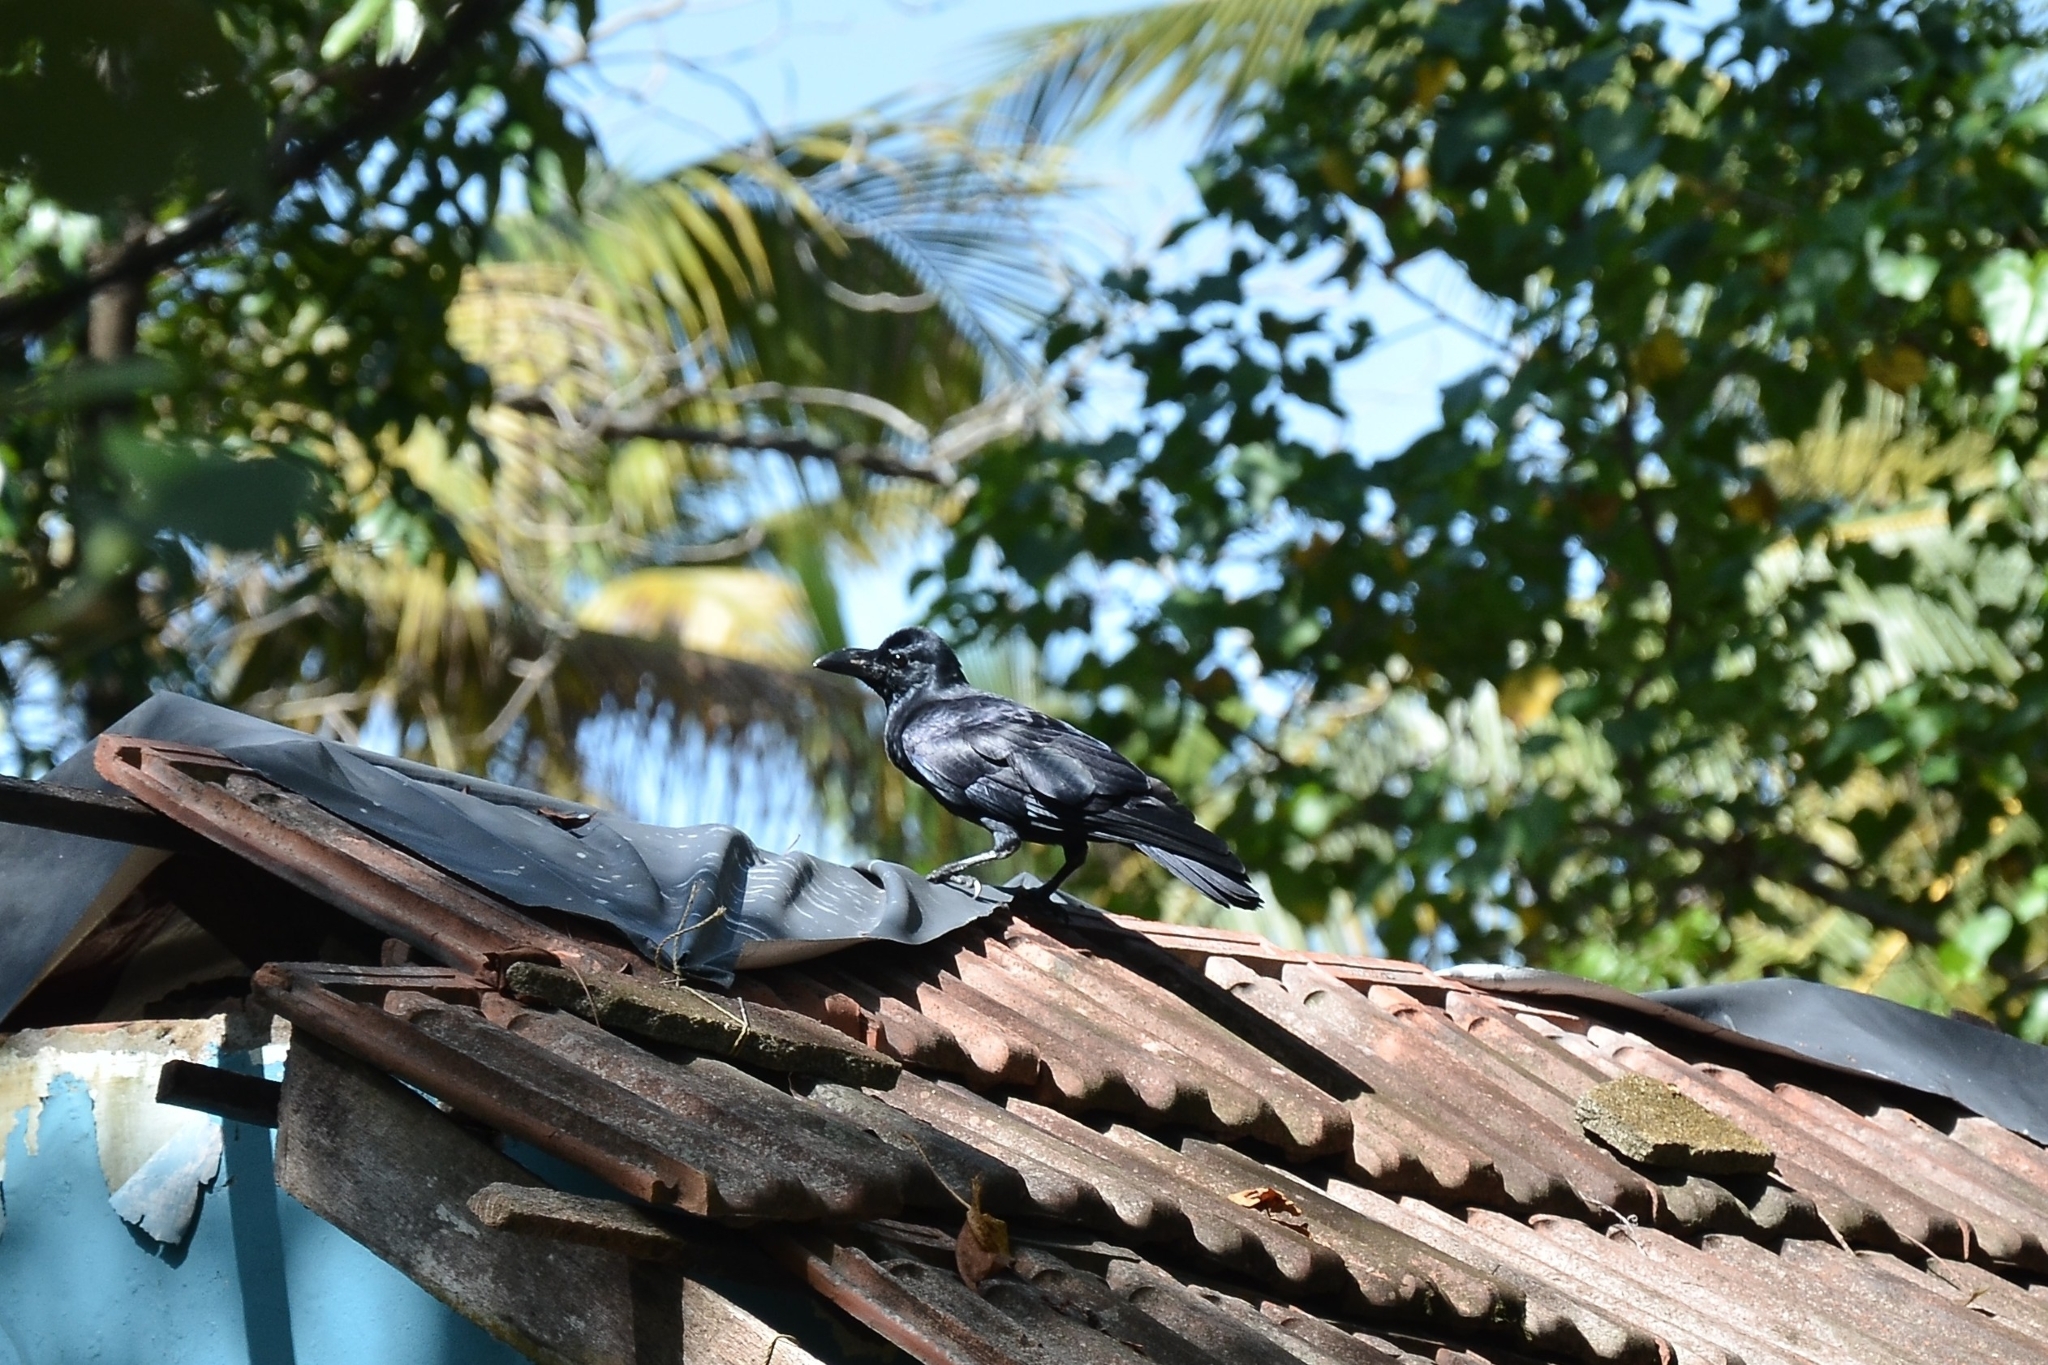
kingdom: Animalia
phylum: Chordata
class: Aves
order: Passeriformes
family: Corvidae
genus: Corvus
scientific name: Corvus macrorhynchos
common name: Large-billed crow
